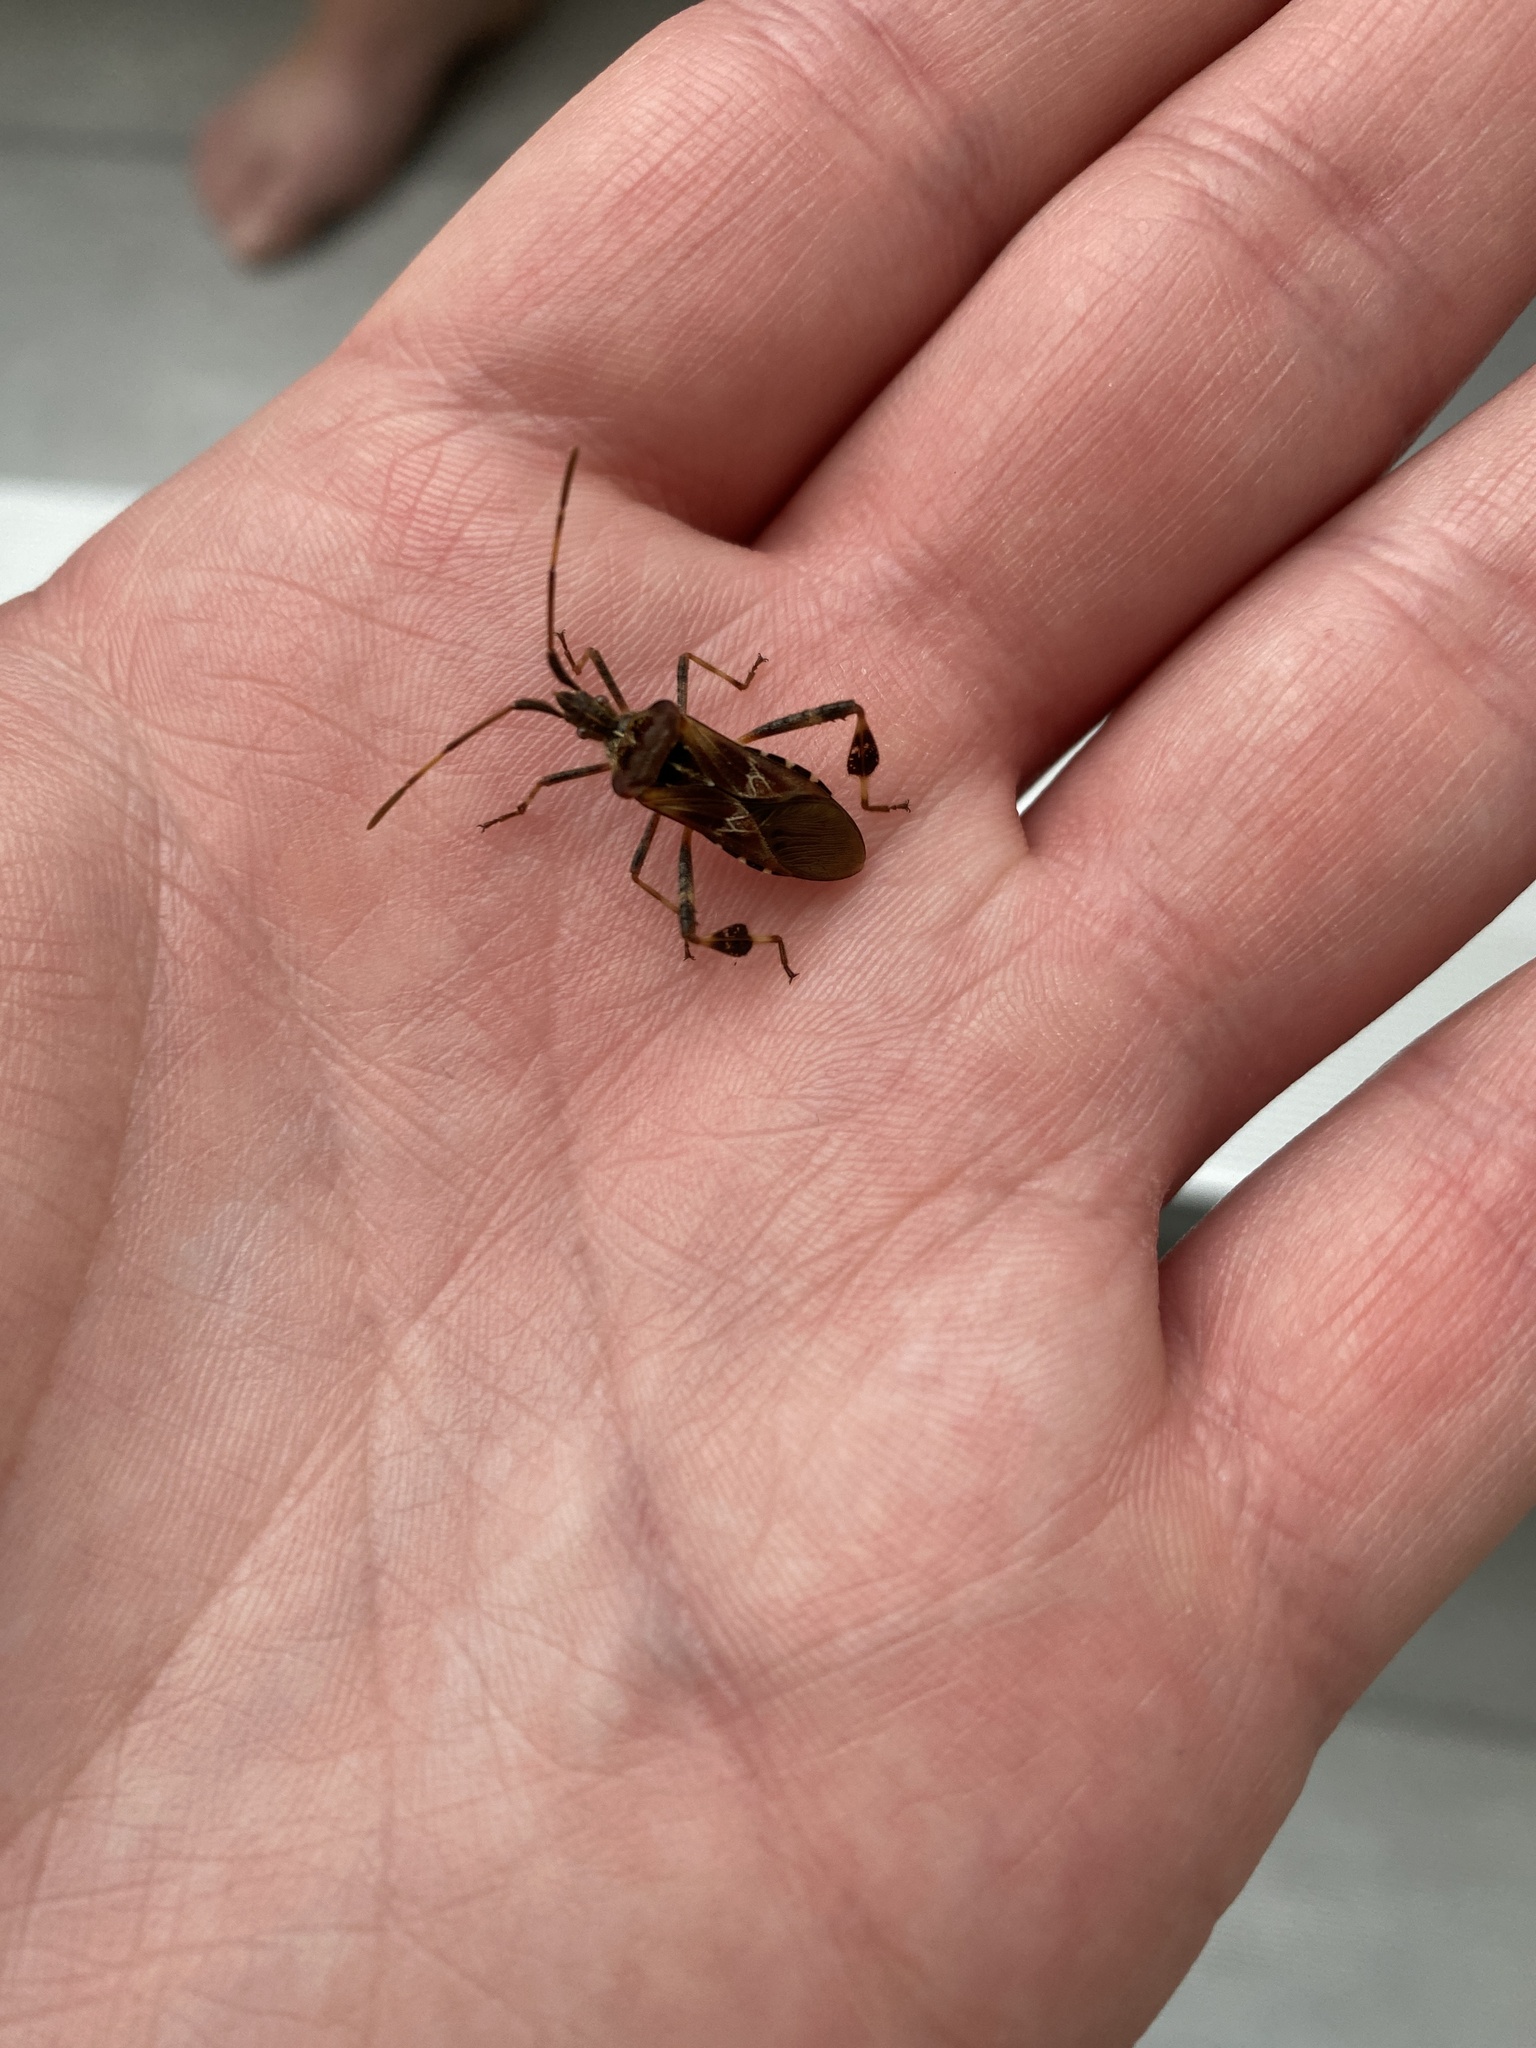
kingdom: Animalia
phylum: Arthropoda
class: Insecta
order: Hemiptera
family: Coreidae
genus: Leptoglossus
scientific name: Leptoglossus occidentalis
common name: Western conifer-seed bug
